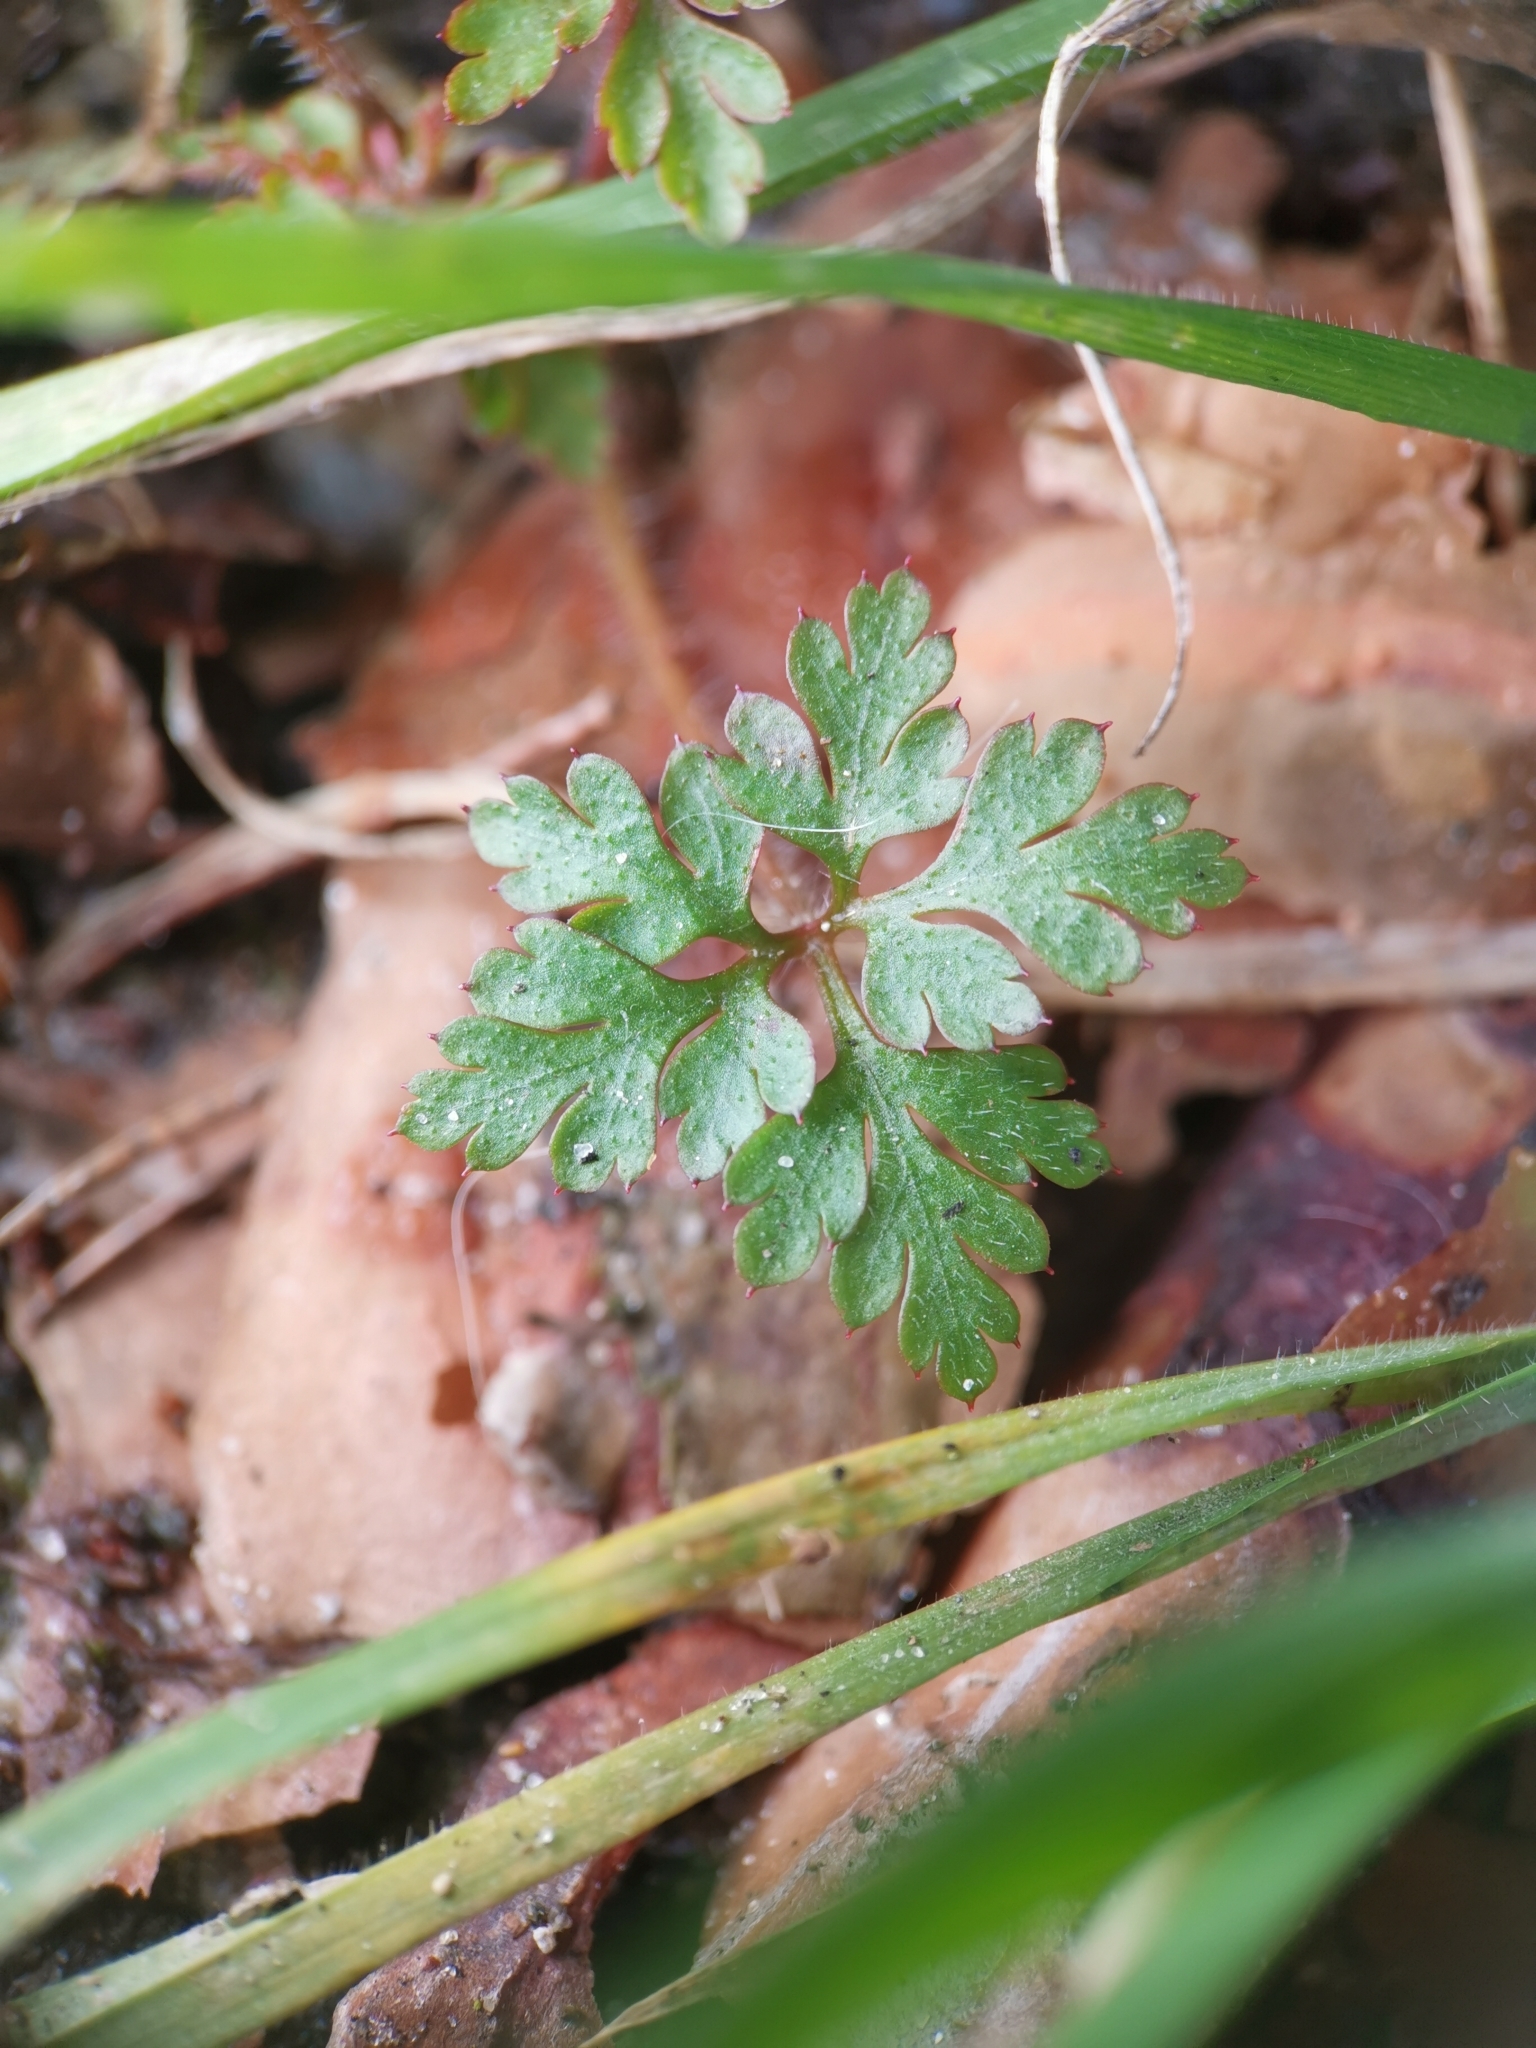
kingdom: Plantae
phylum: Tracheophyta
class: Magnoliopsida
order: Geraniales
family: Geraniaceae
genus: Geranium
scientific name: Geranium robertianum
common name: Herb-robert
